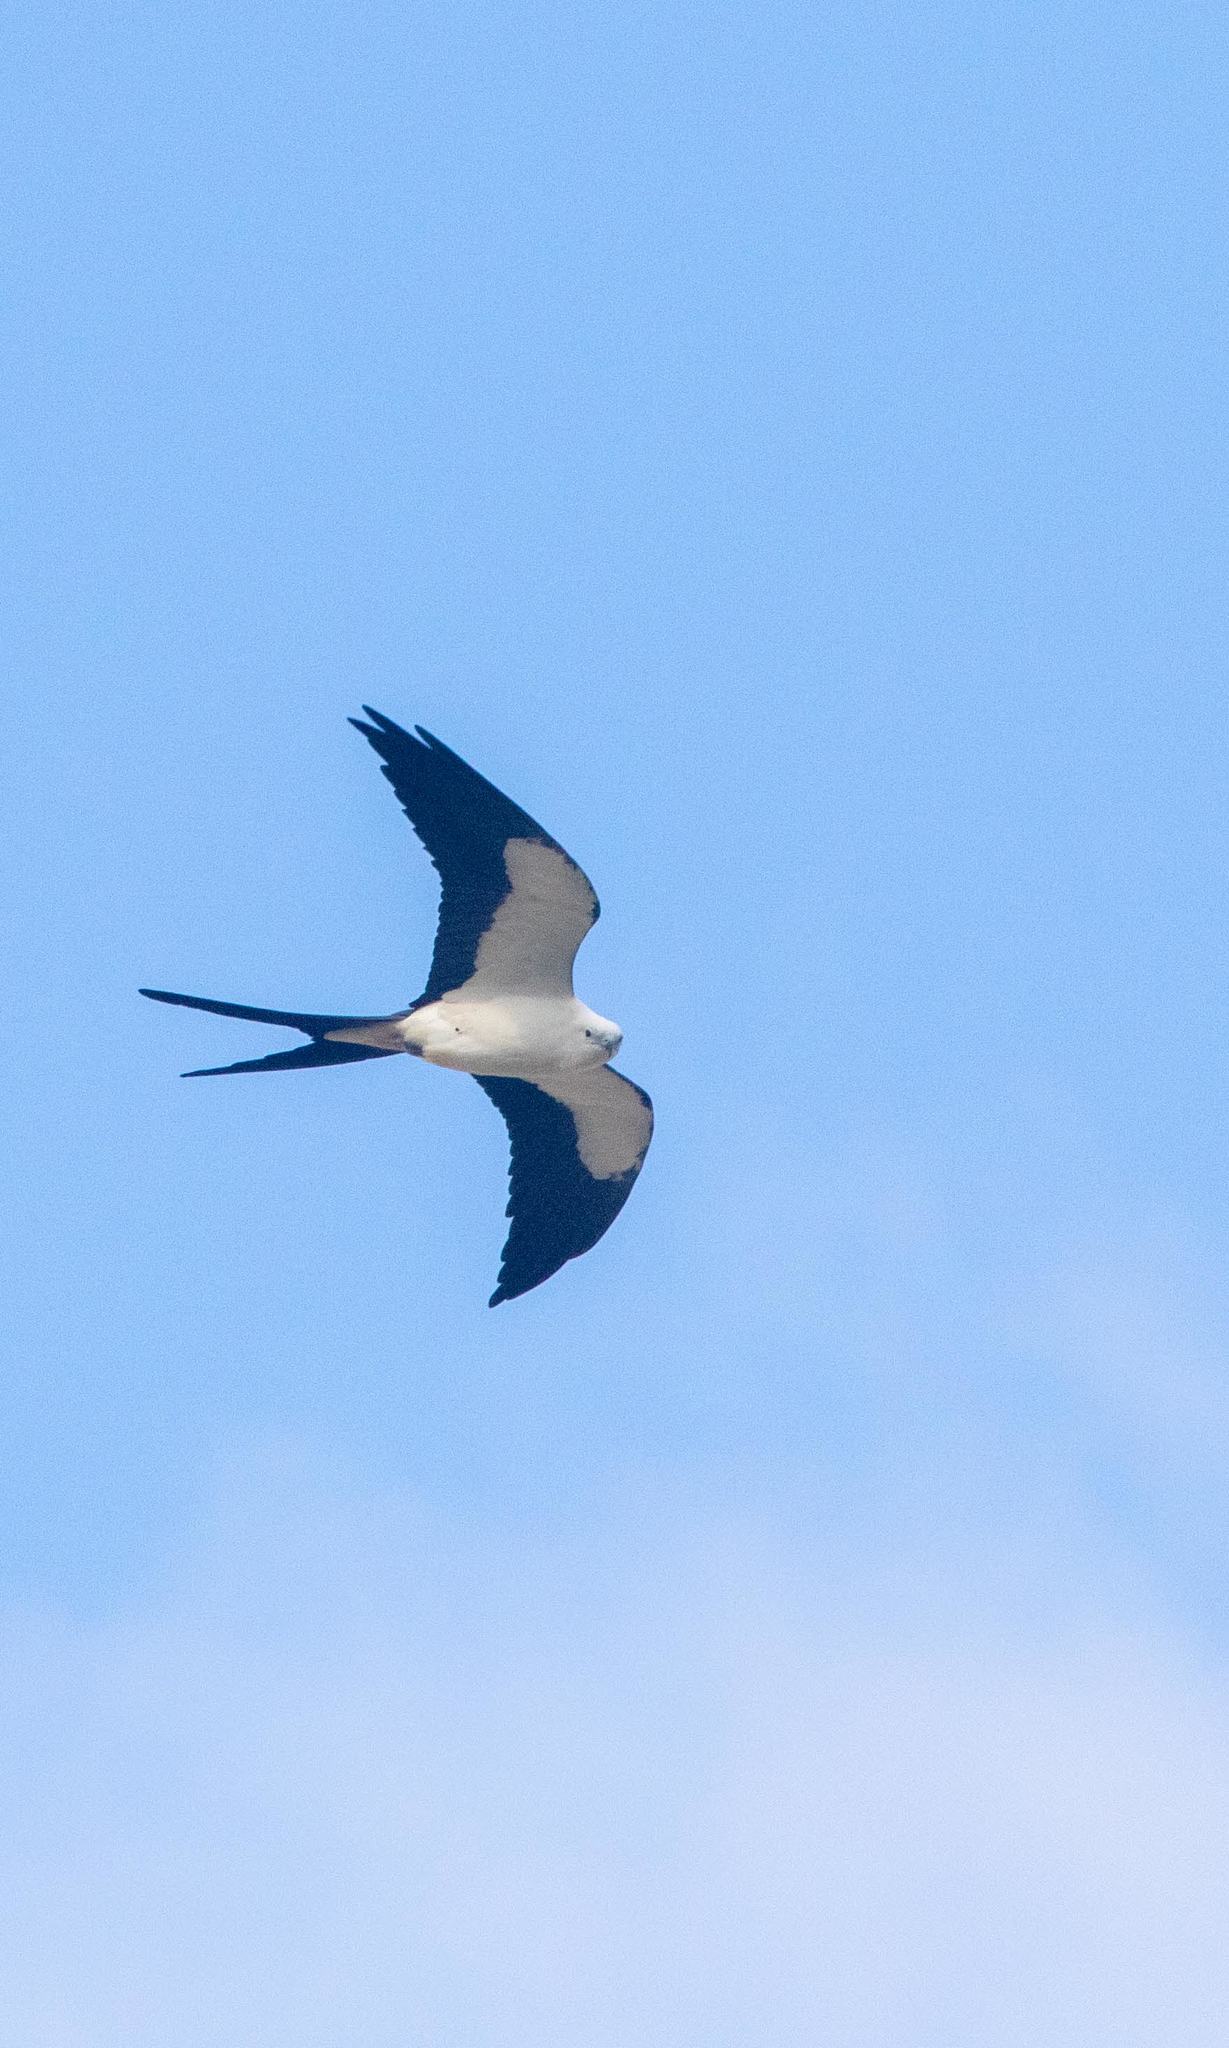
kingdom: Animalia
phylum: Chordata
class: Aves
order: Accipitriformes
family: Accipitridae
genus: Elanoides
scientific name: Elanoides forficatus
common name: Swallow-tailed kite
